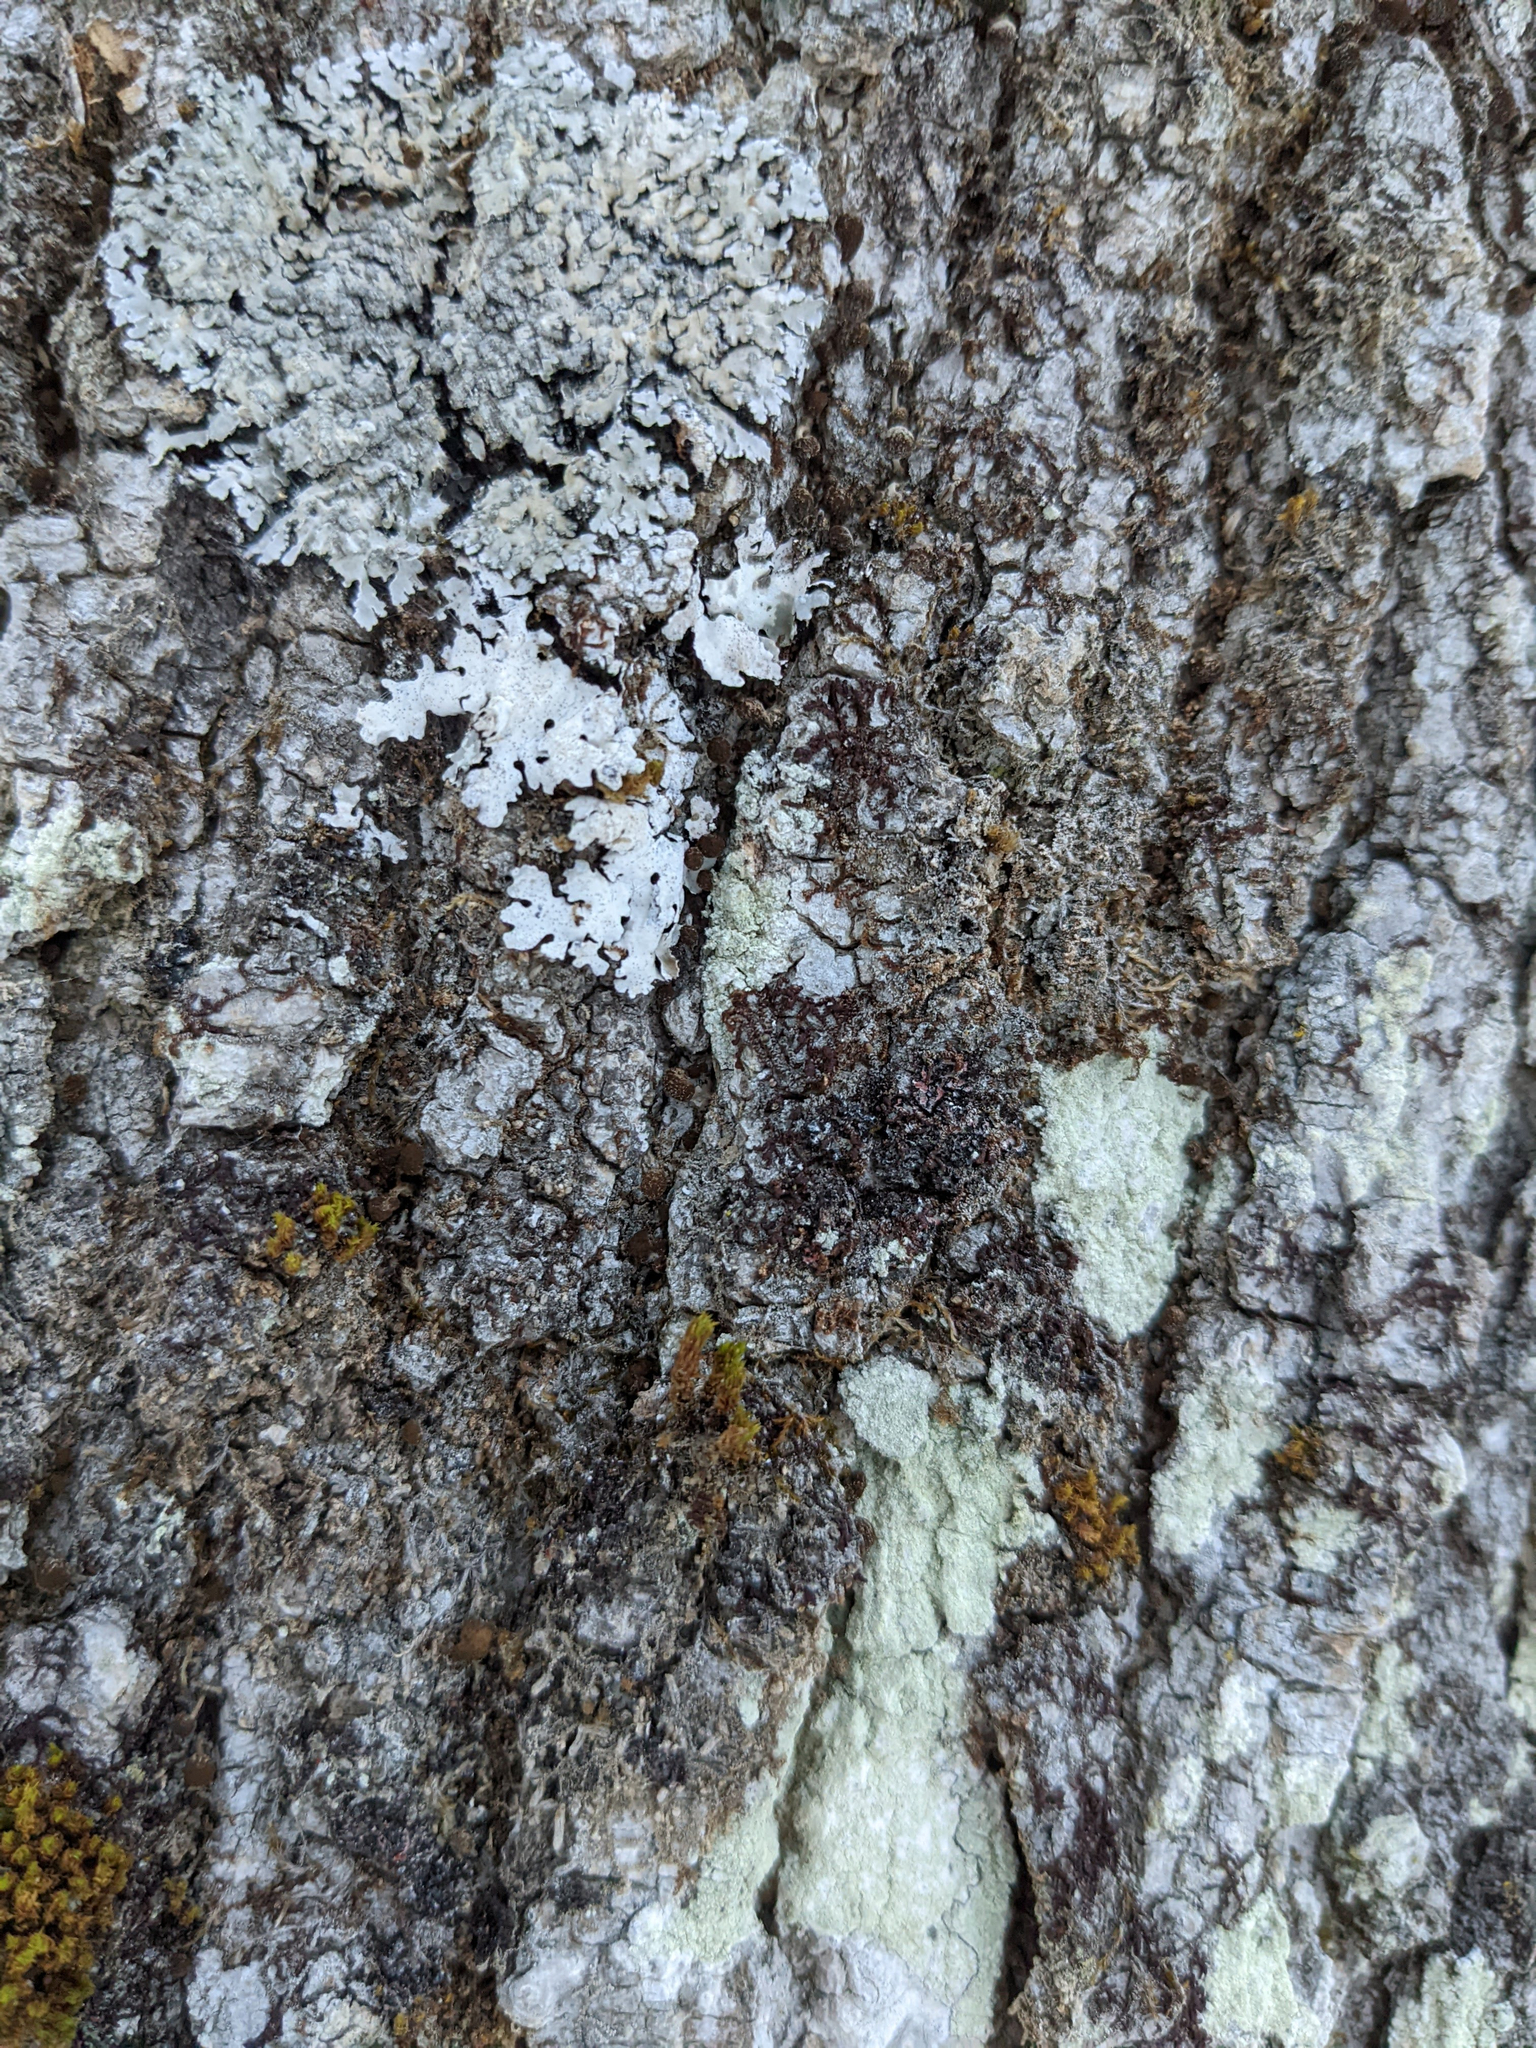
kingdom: Plantae
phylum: Bryophyta
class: Bryopsida
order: Orthotrichales
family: Orthotrichaceae
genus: Ulota
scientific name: Ulota crispa
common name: Crisped pincushion moss
